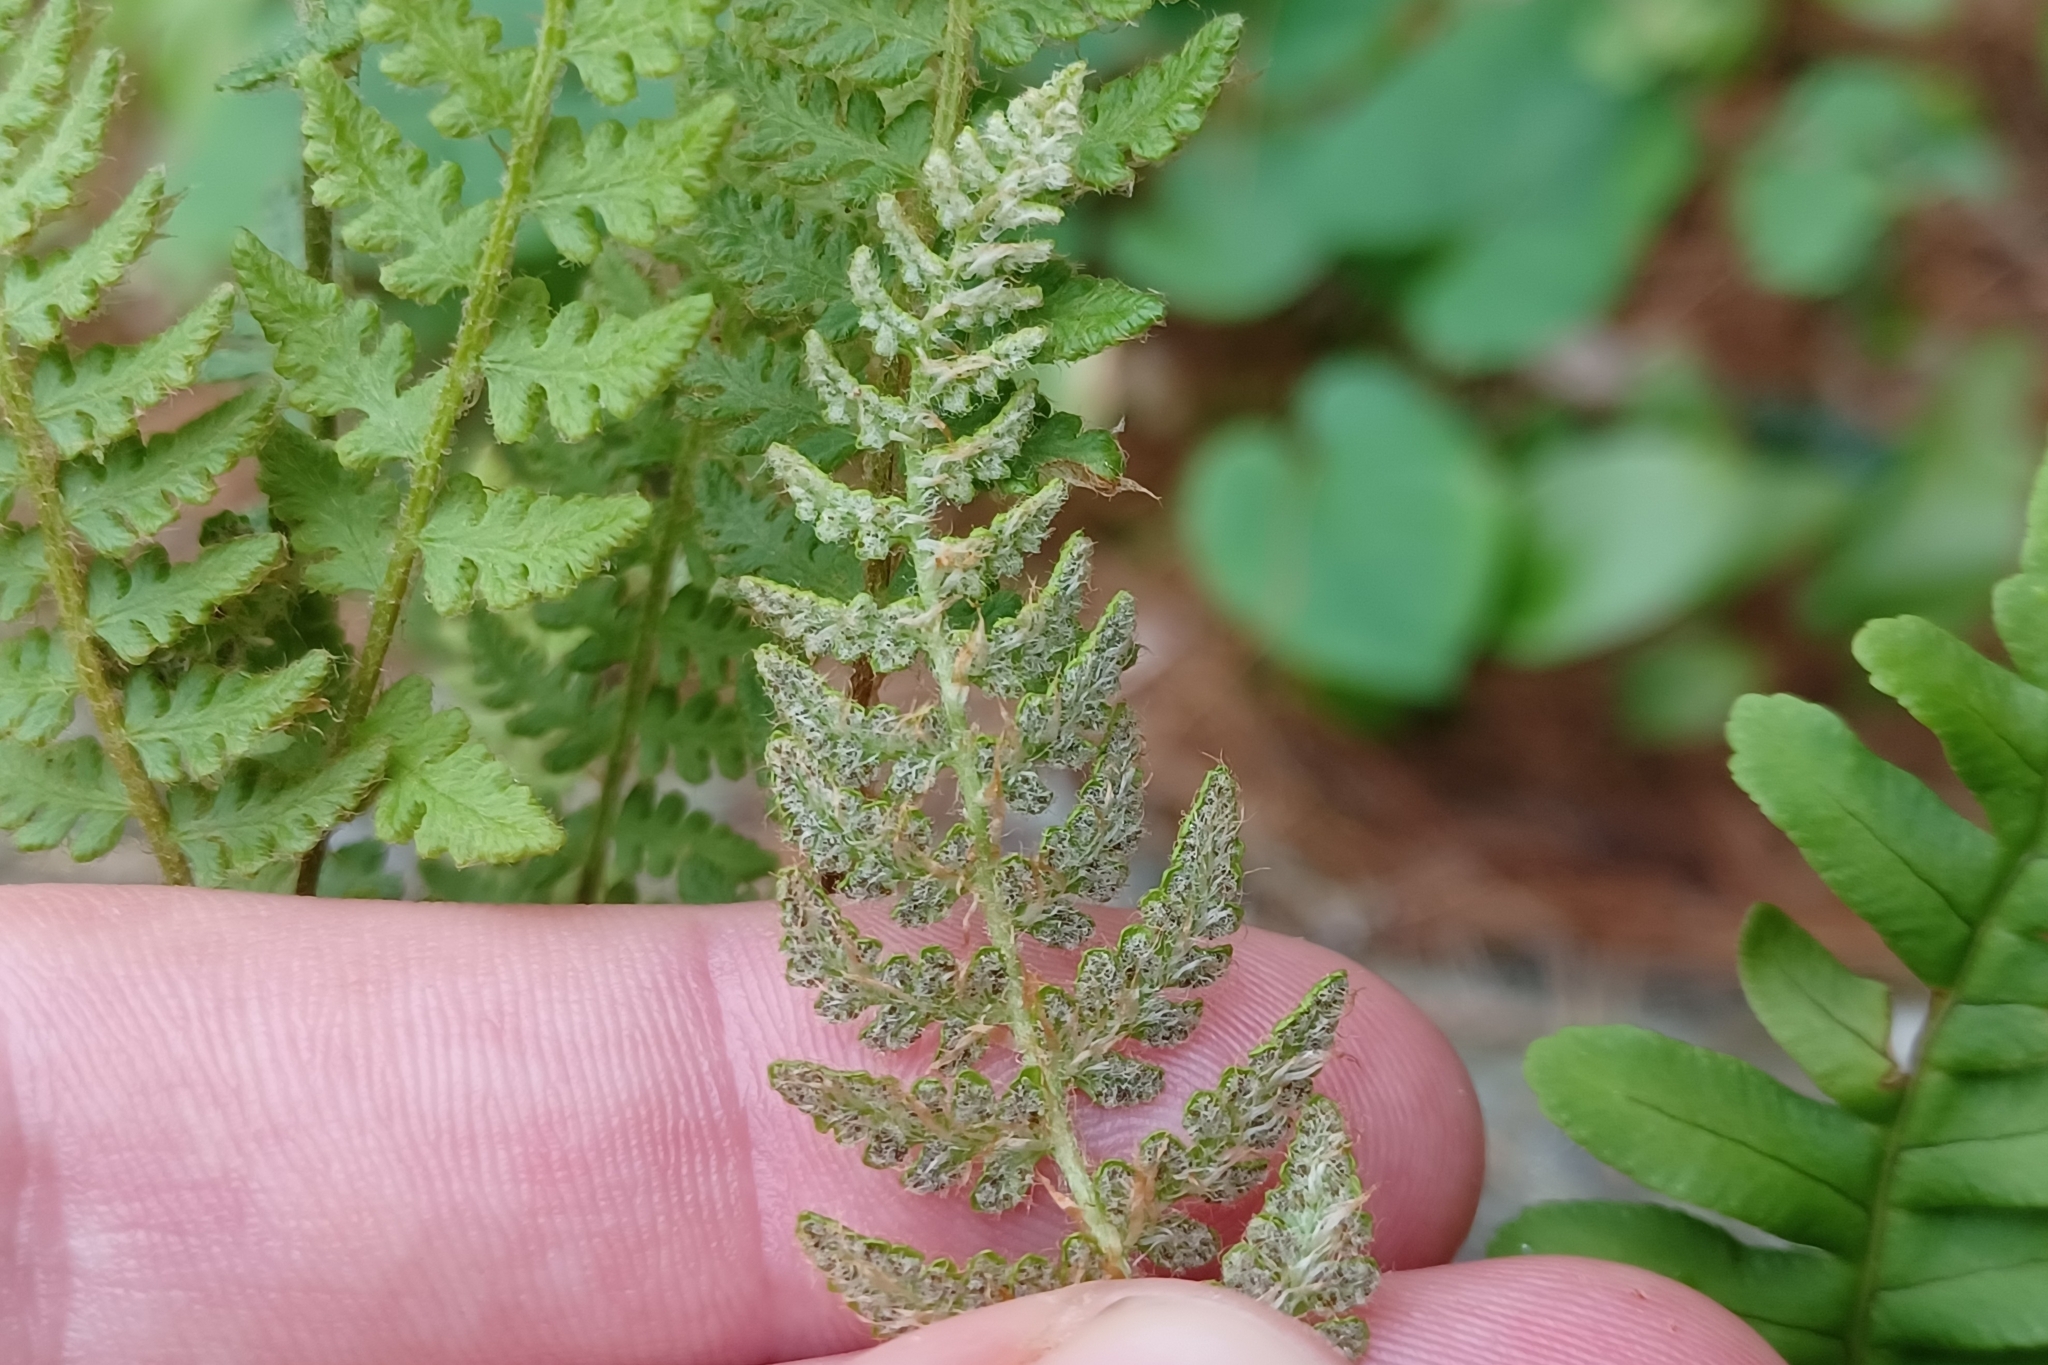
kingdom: Plantae
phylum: Tracheophyta
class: Polypodiopsida
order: Polypodiales
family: Woodsiaceae
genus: Woodsia
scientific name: Woodsia ilvensis
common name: Fragrant woodsia
